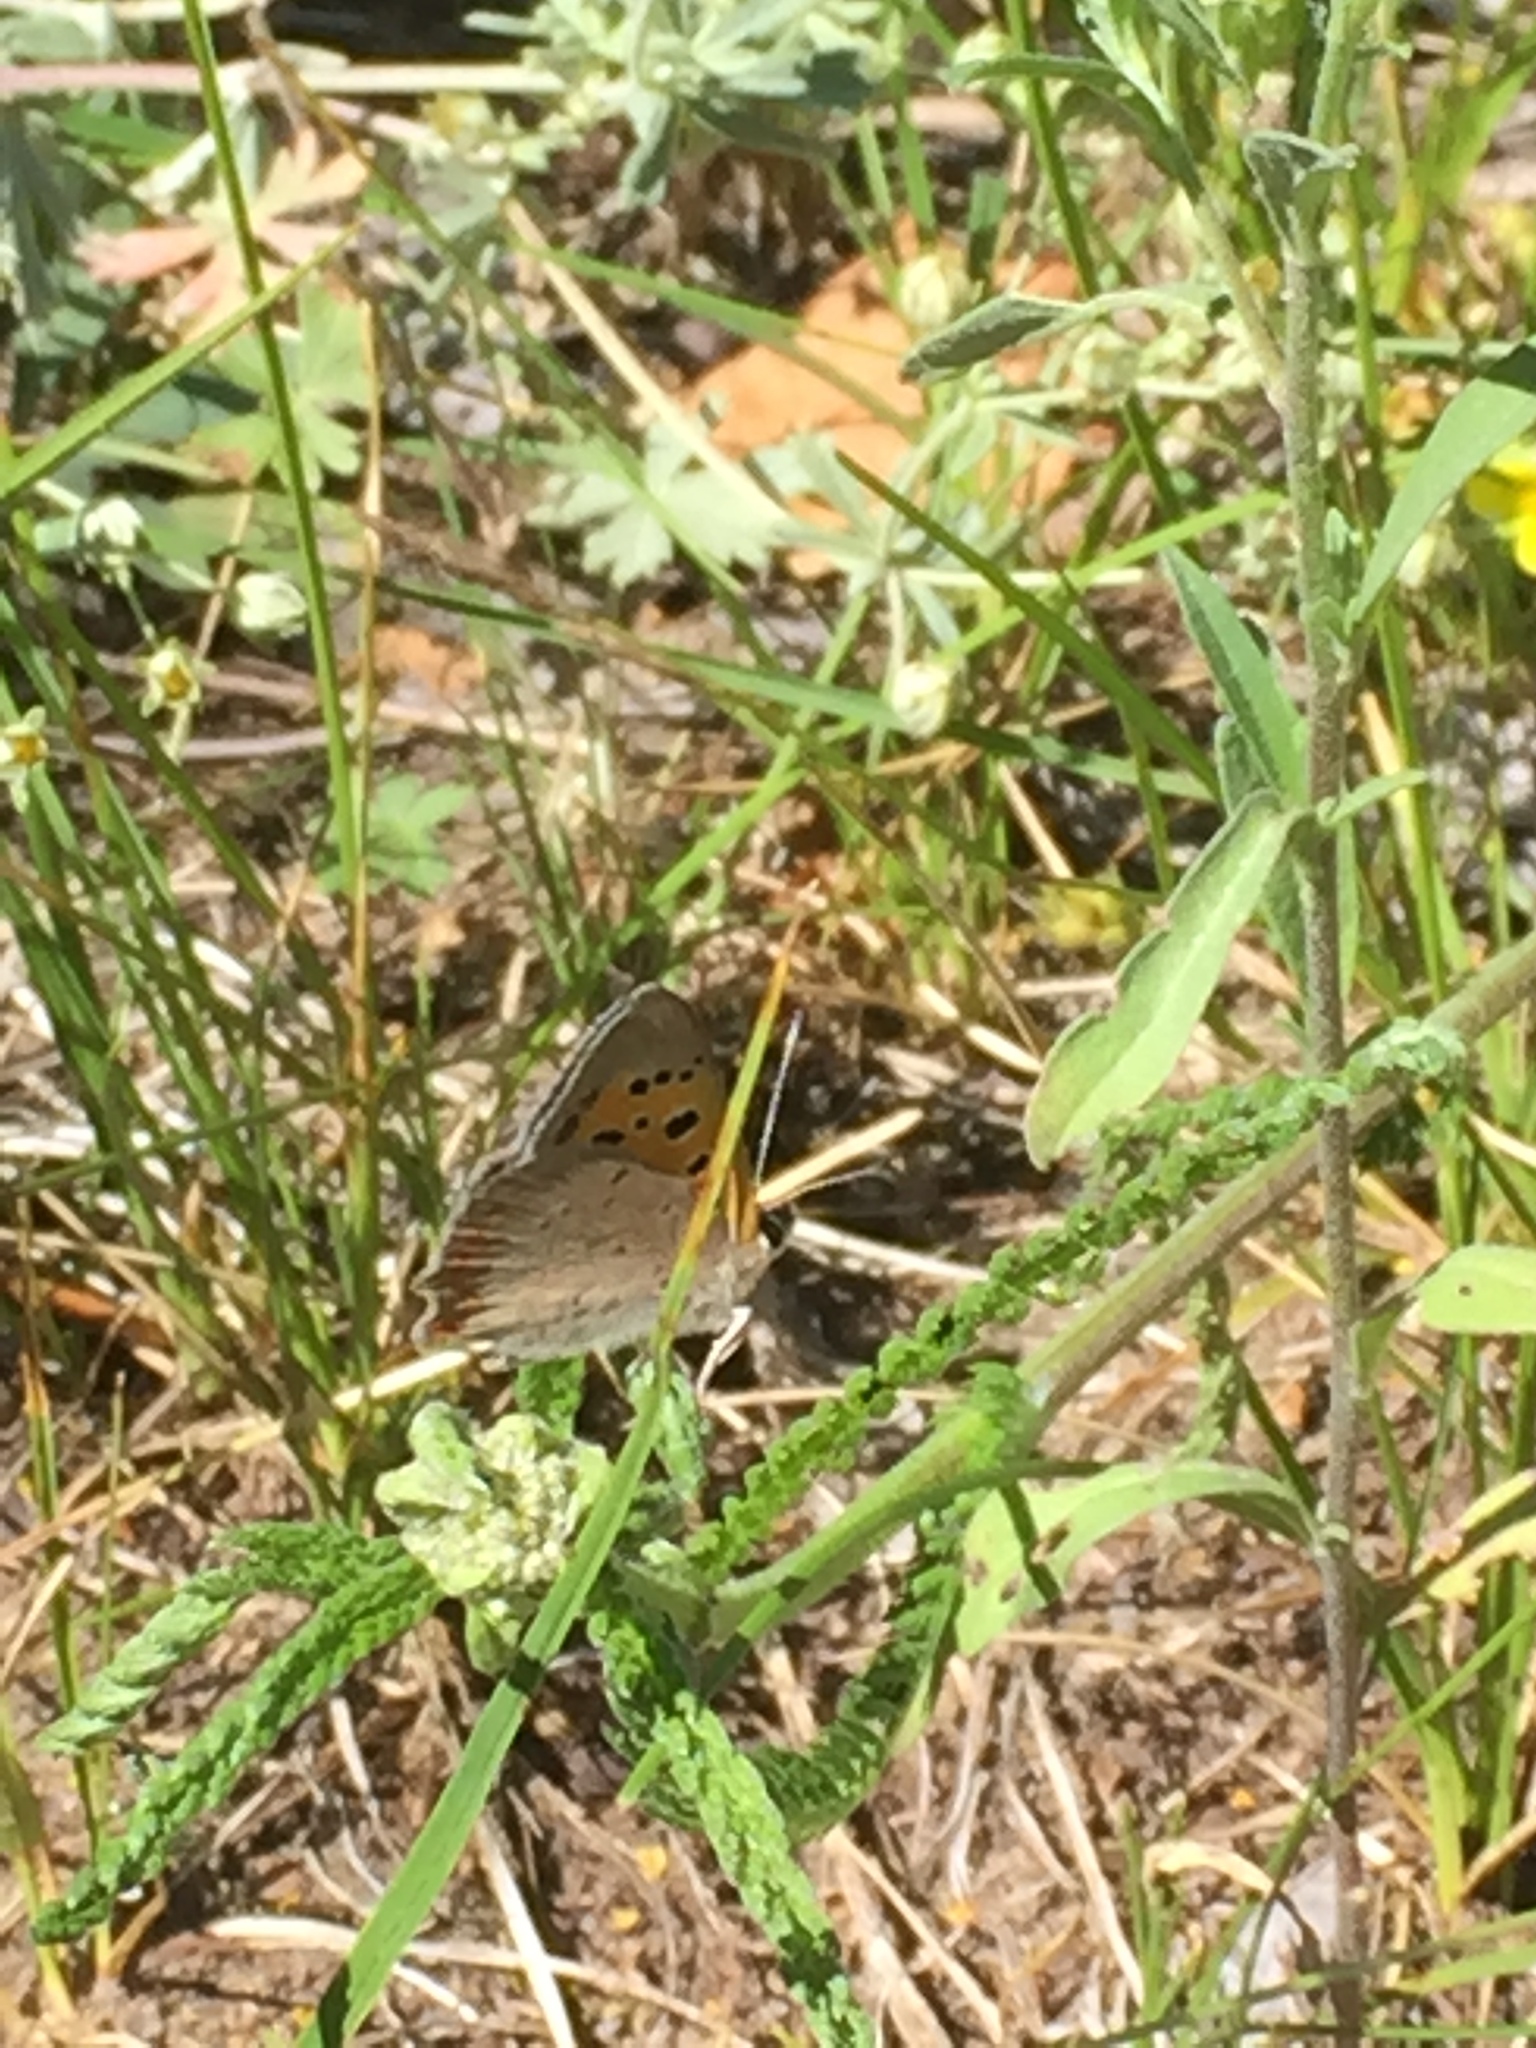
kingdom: Animalia
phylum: Arthropoda
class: Insecta
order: Lepidoptera
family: Lycaenidae
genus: Lycaena
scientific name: Lycaena phlaeas
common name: Small copper
